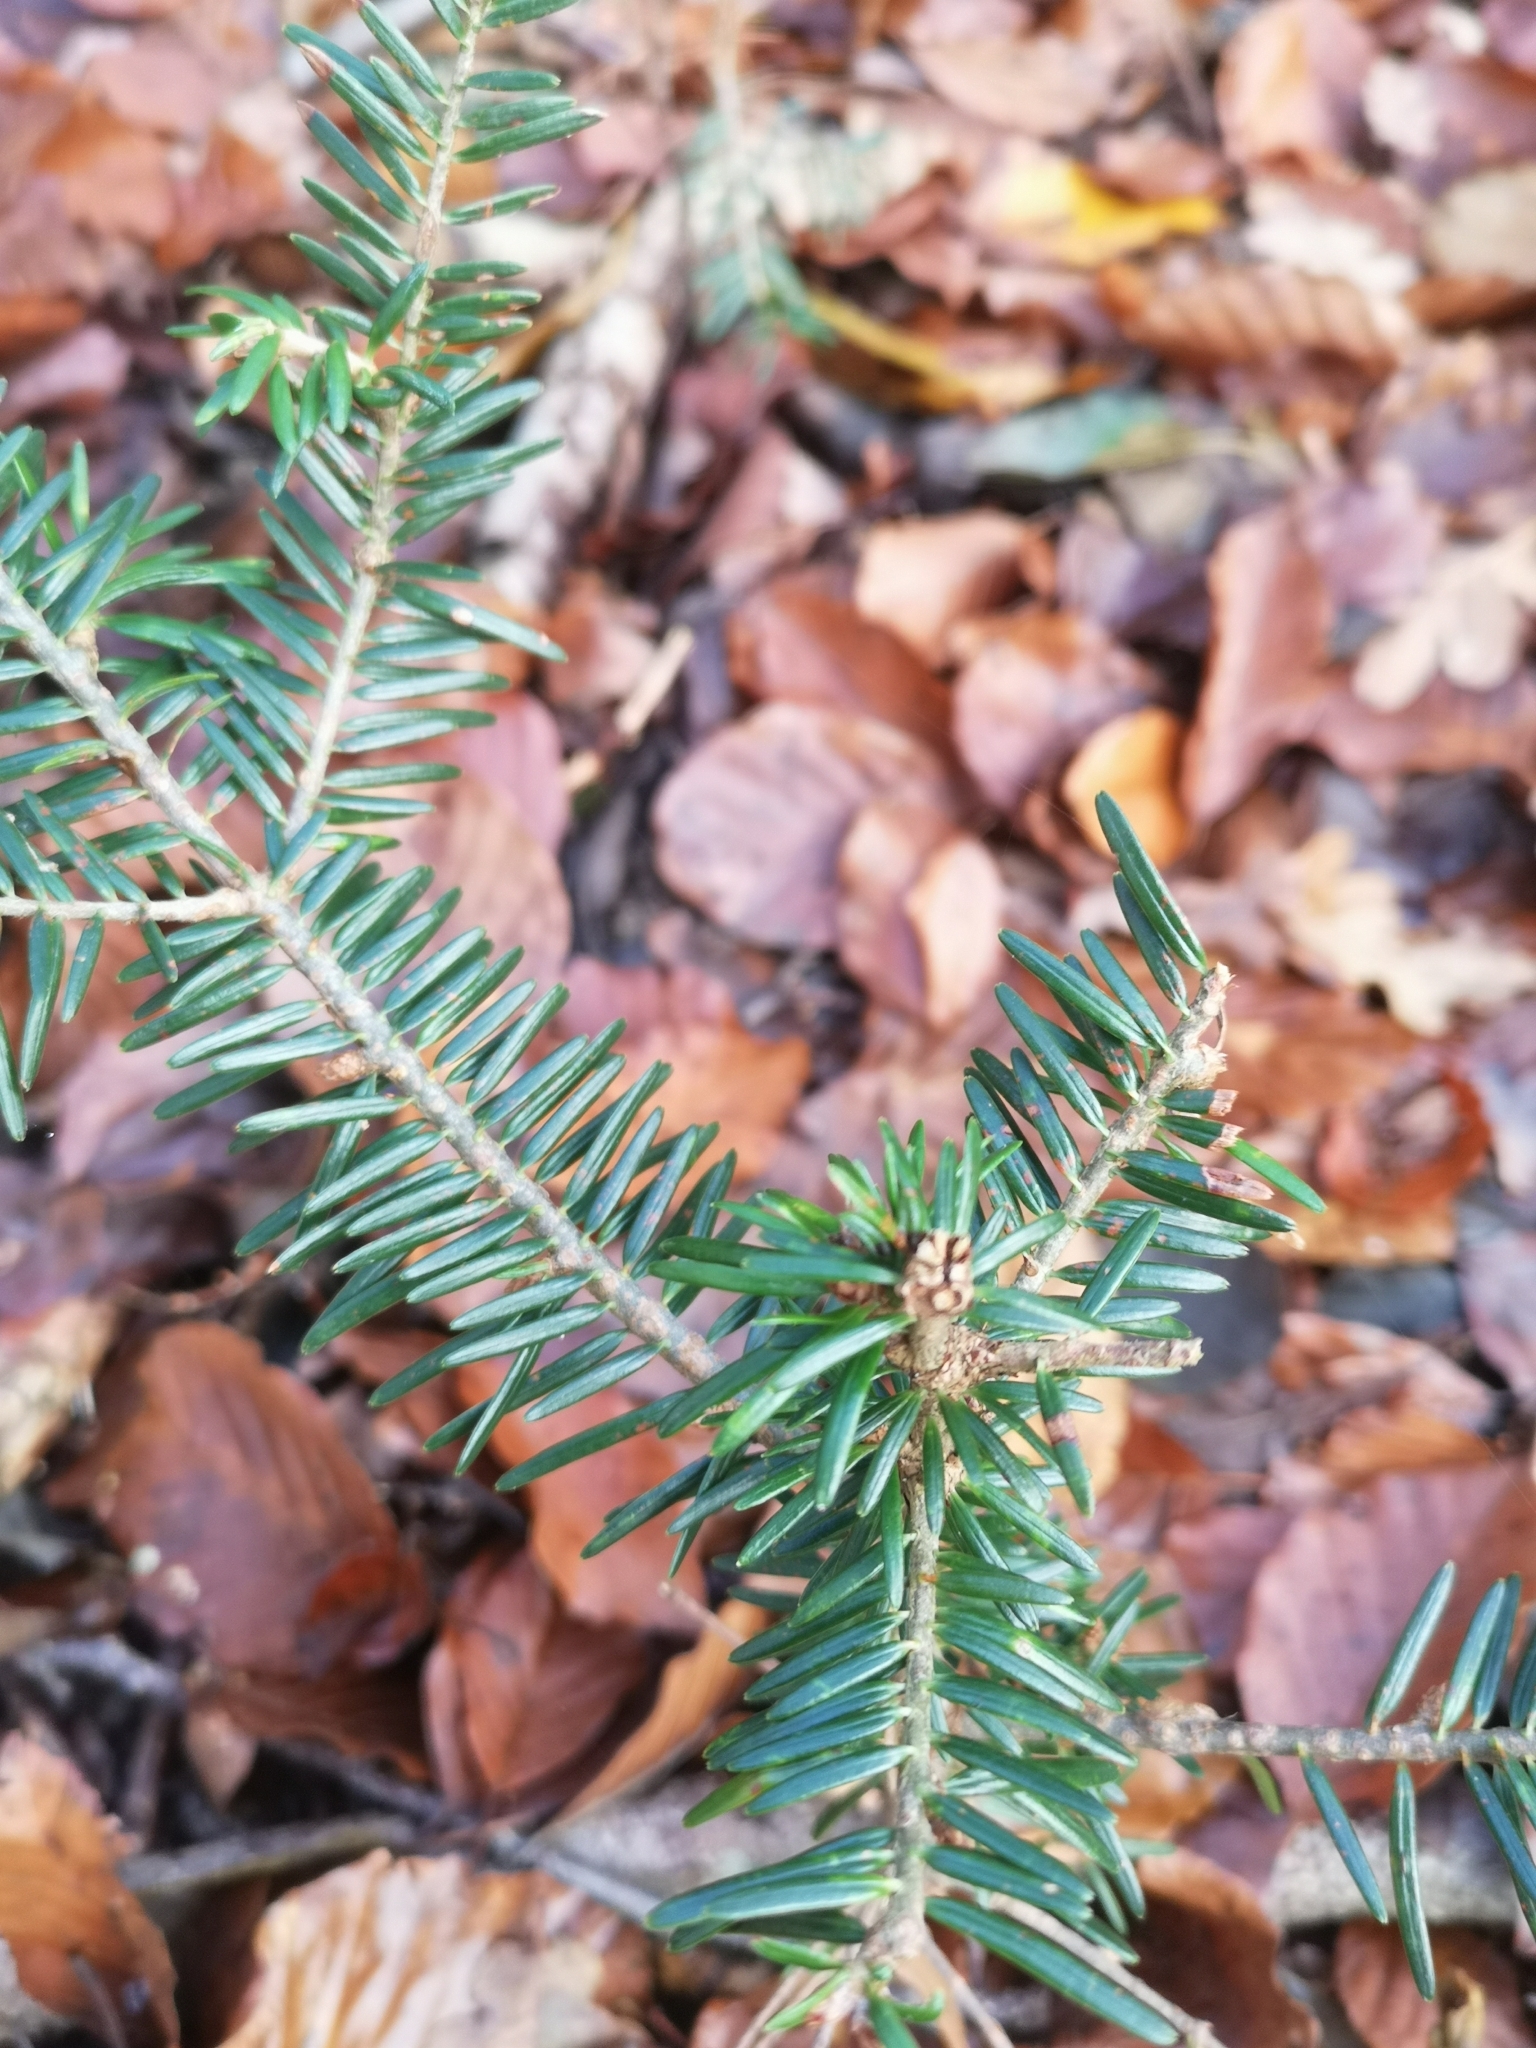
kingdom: Plantae
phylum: Tracheophyta
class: Pinopsida
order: Pinales
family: Pinaceae
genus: Abies
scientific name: Abies alba
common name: Silver fir
